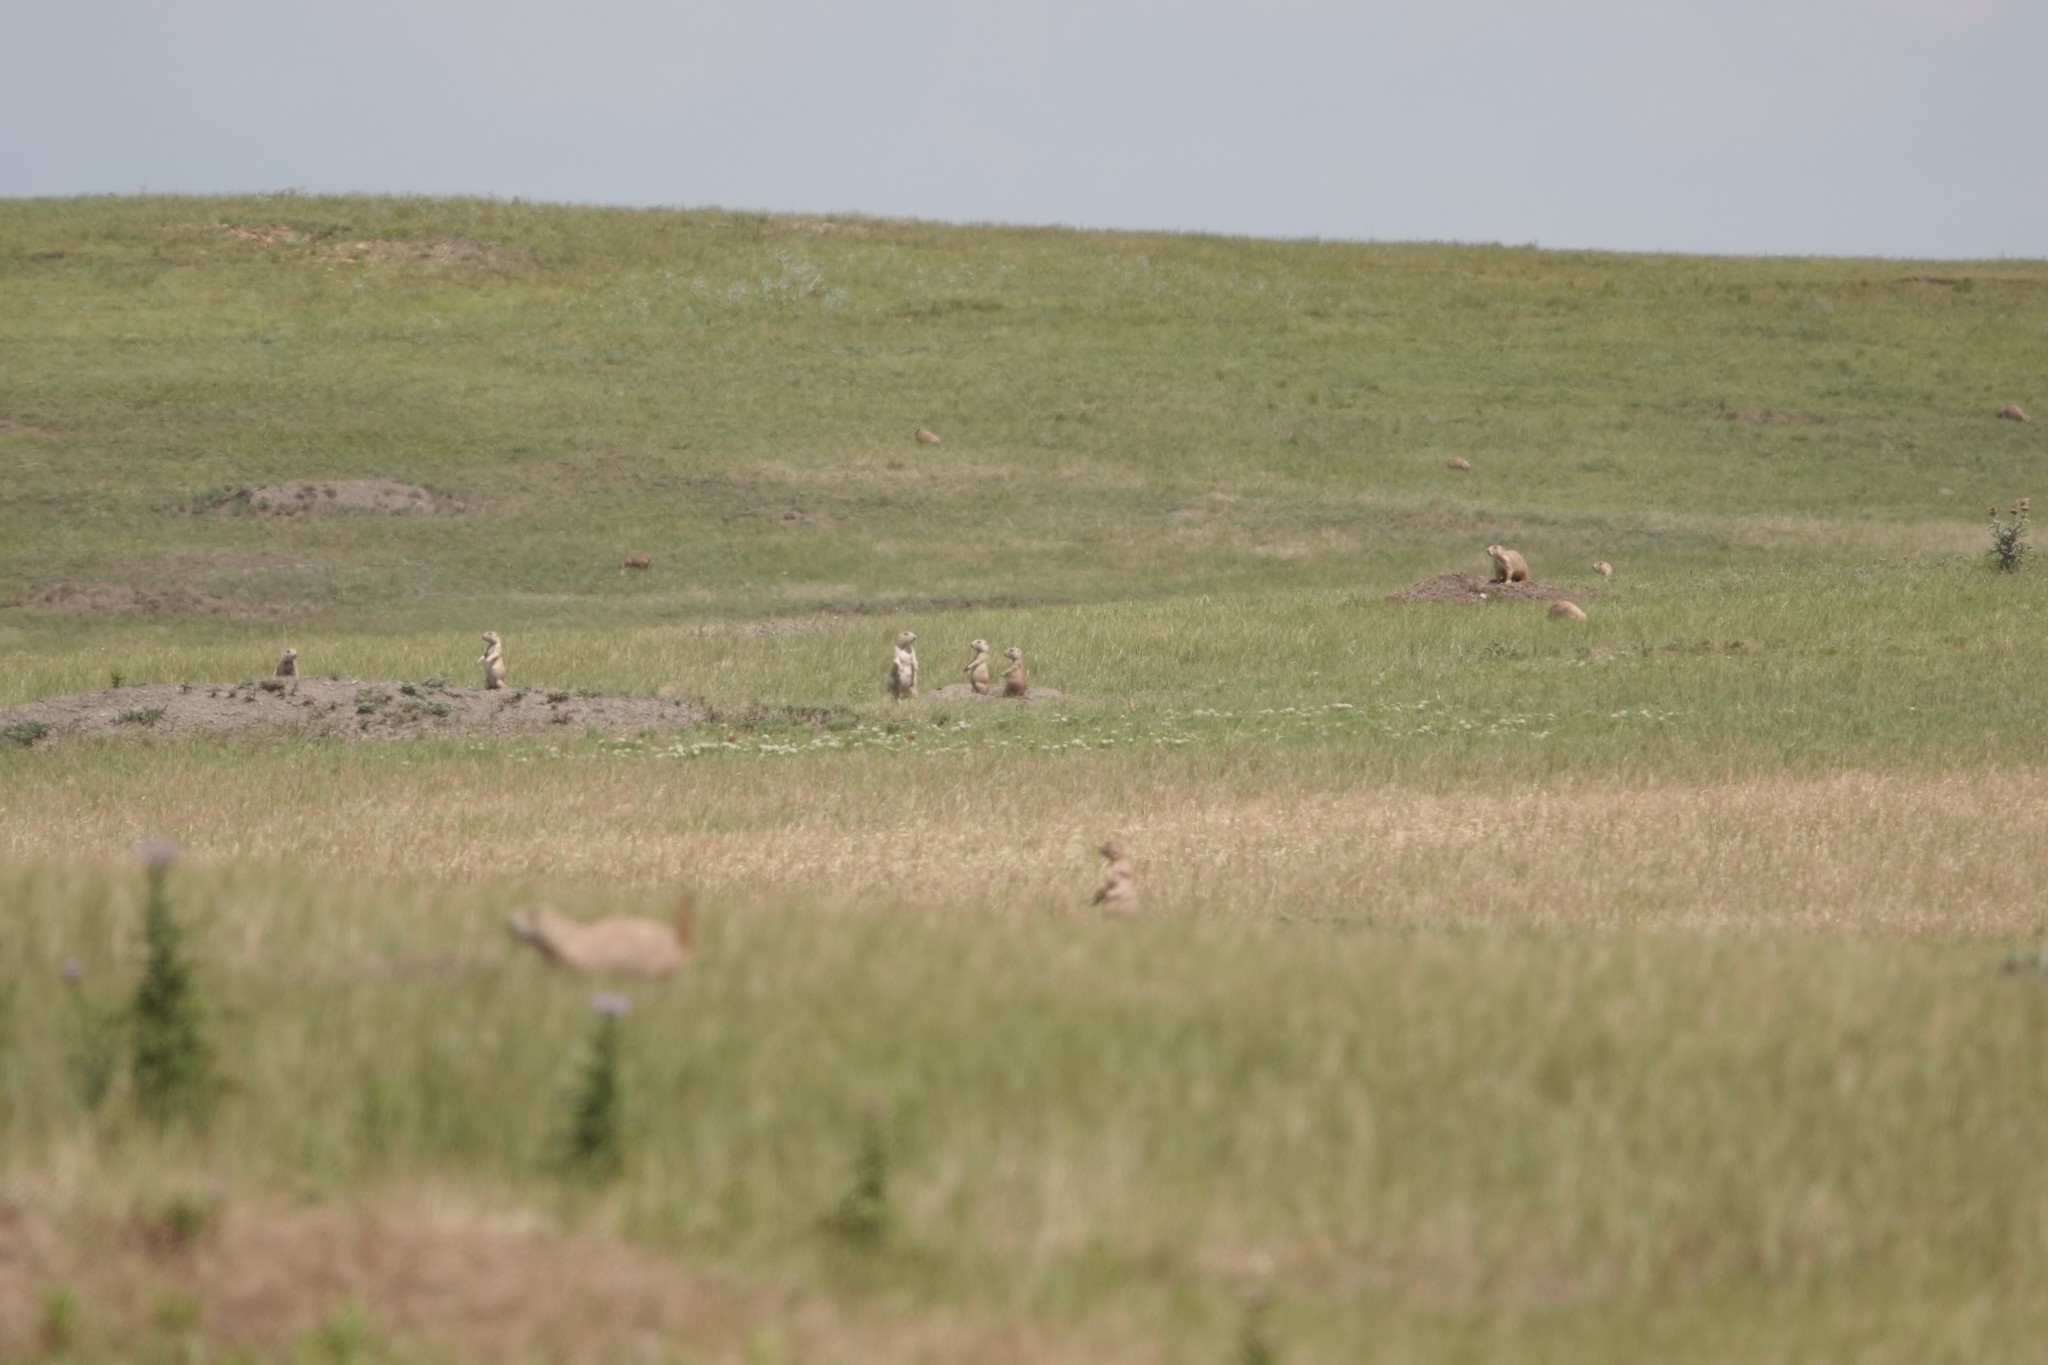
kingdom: Animalia
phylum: Chordata
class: Mammalia
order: Rodentia
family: Sciuridae
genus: Cynomys
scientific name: Cynomys ludovicianus
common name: Black-tailed prairie dog
